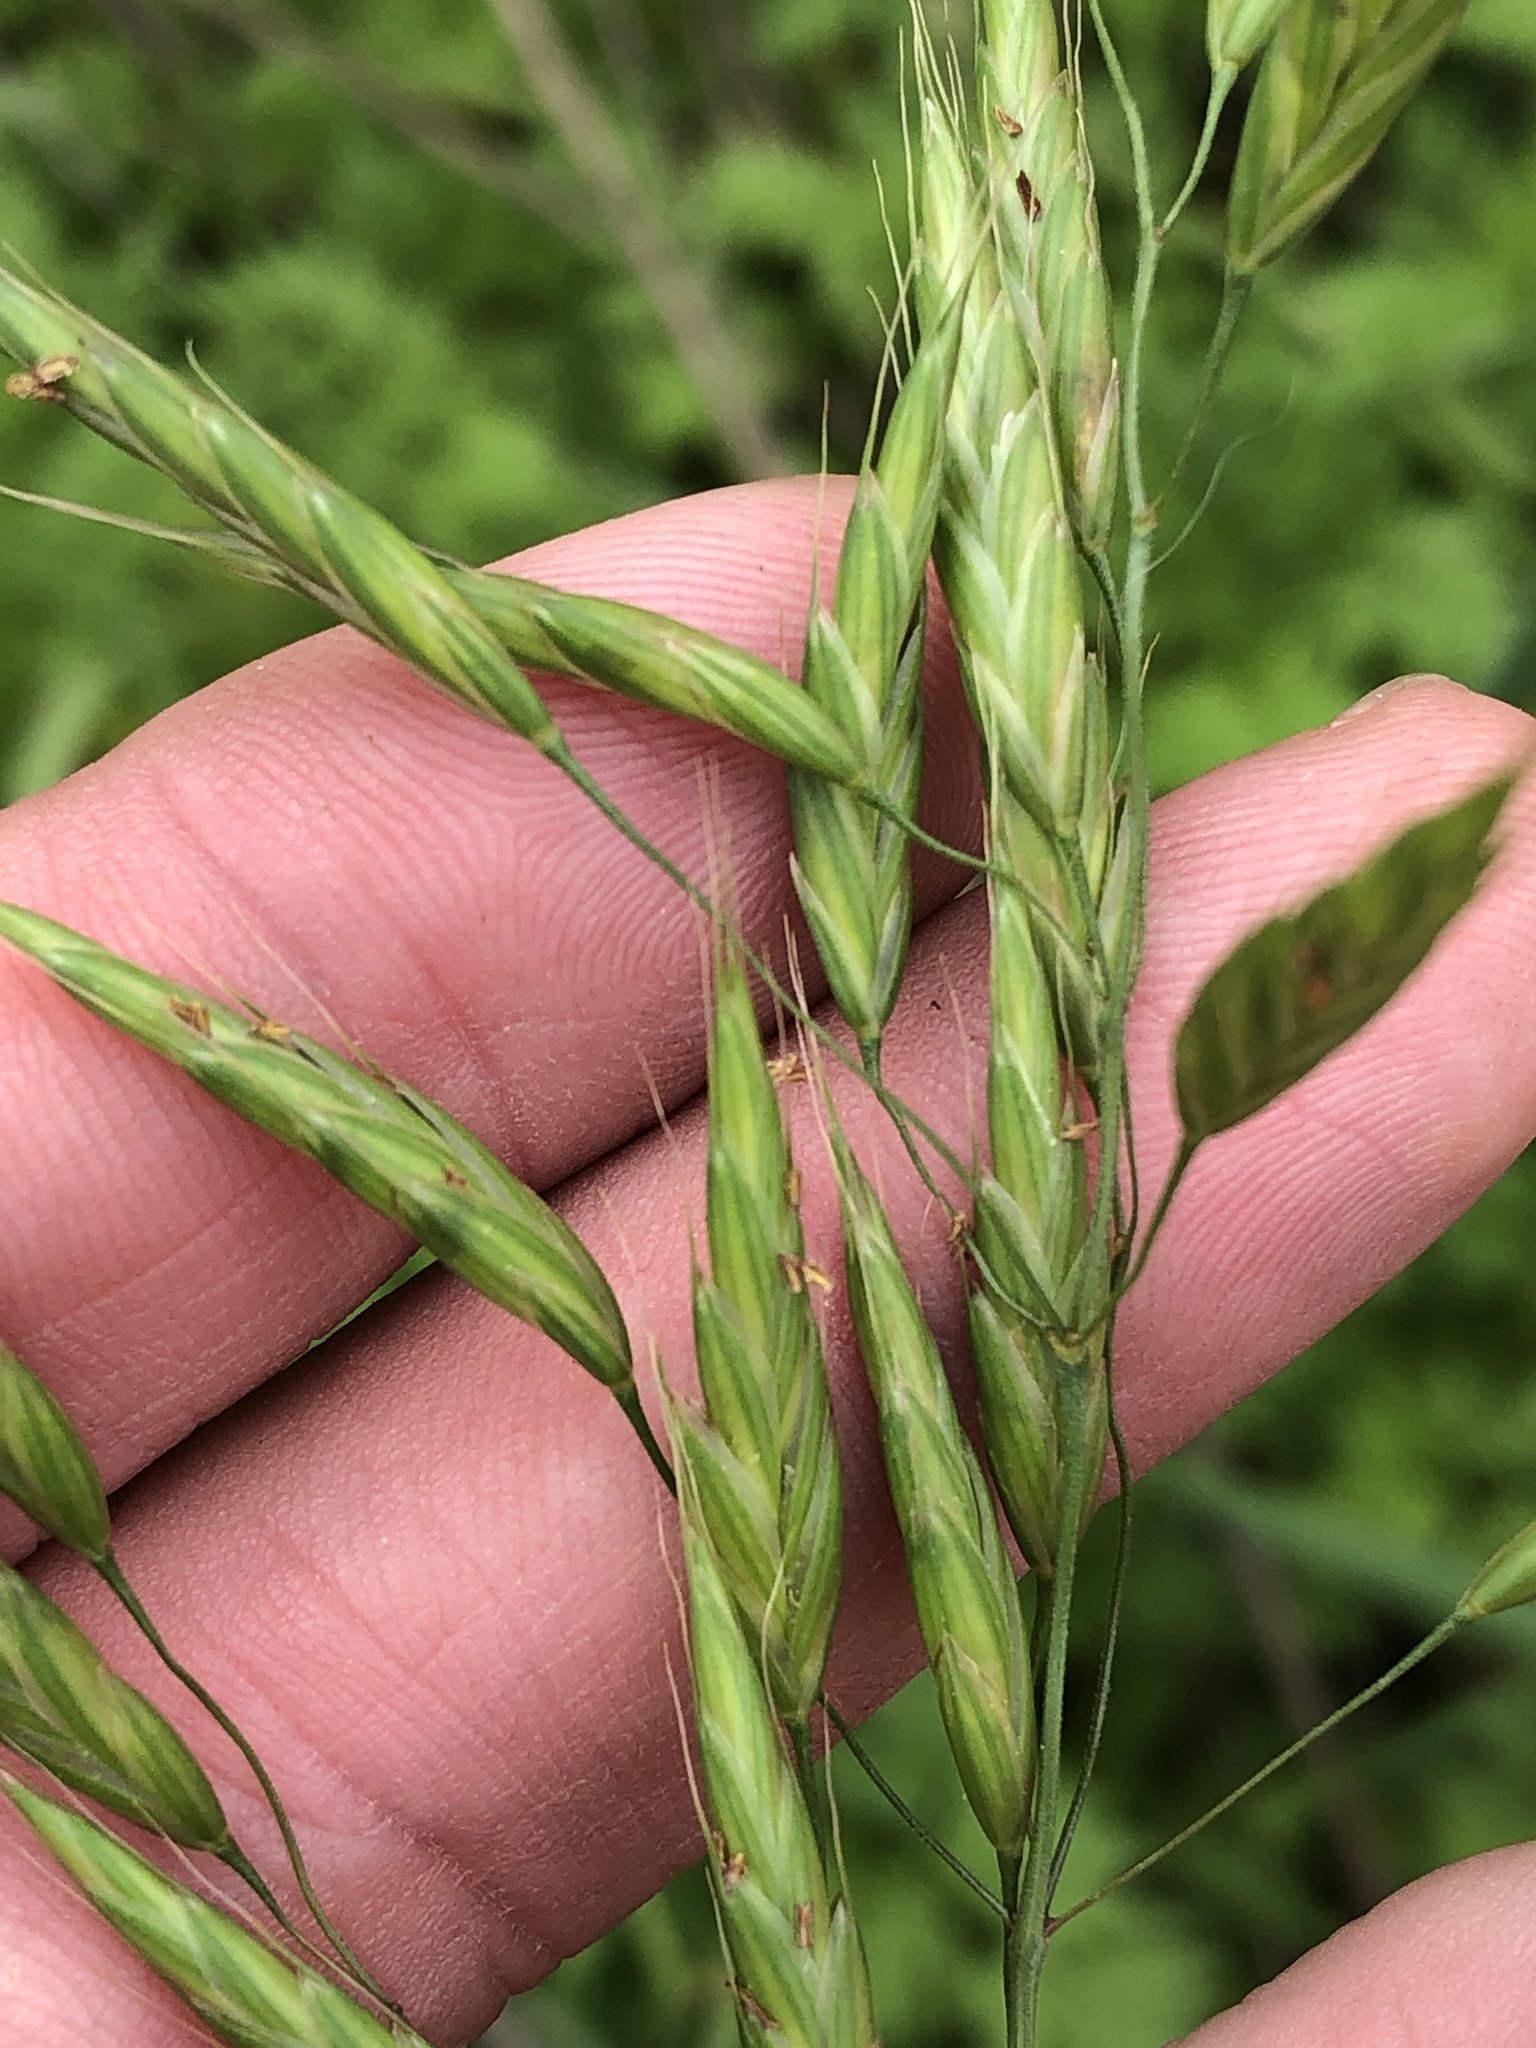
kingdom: Plantae
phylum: Tracheophyta
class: Liliopsida
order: Poales
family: Poaceae
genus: Bromus
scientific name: Bromus japonicus
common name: Japanese brome
